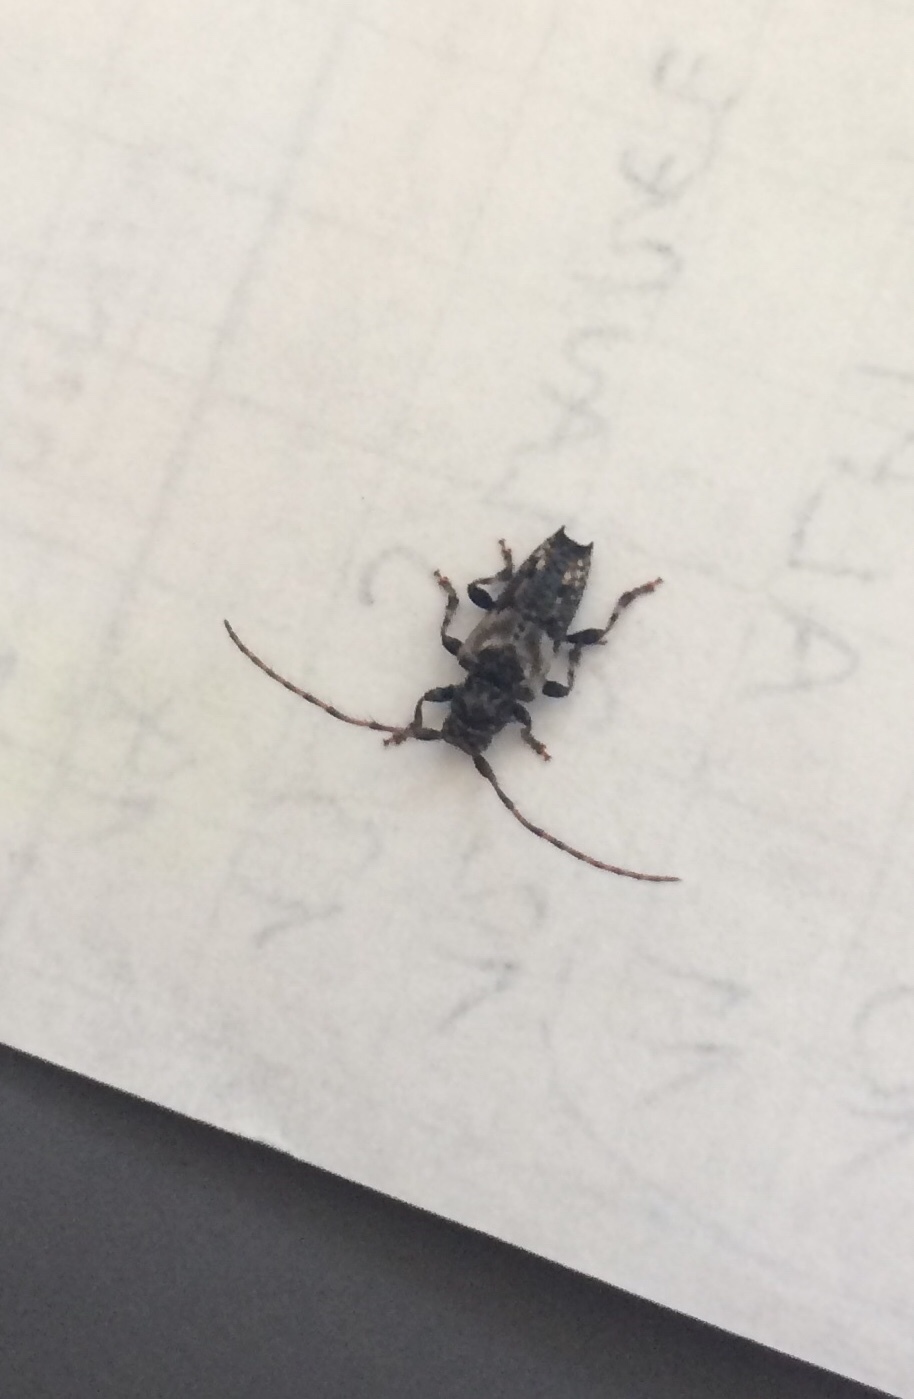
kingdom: Animalia
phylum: Arthropoda
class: Insecta
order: Coleoptera
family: Cerambycidae
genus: Pogonocherus
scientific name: Pogonocherus hispidus
